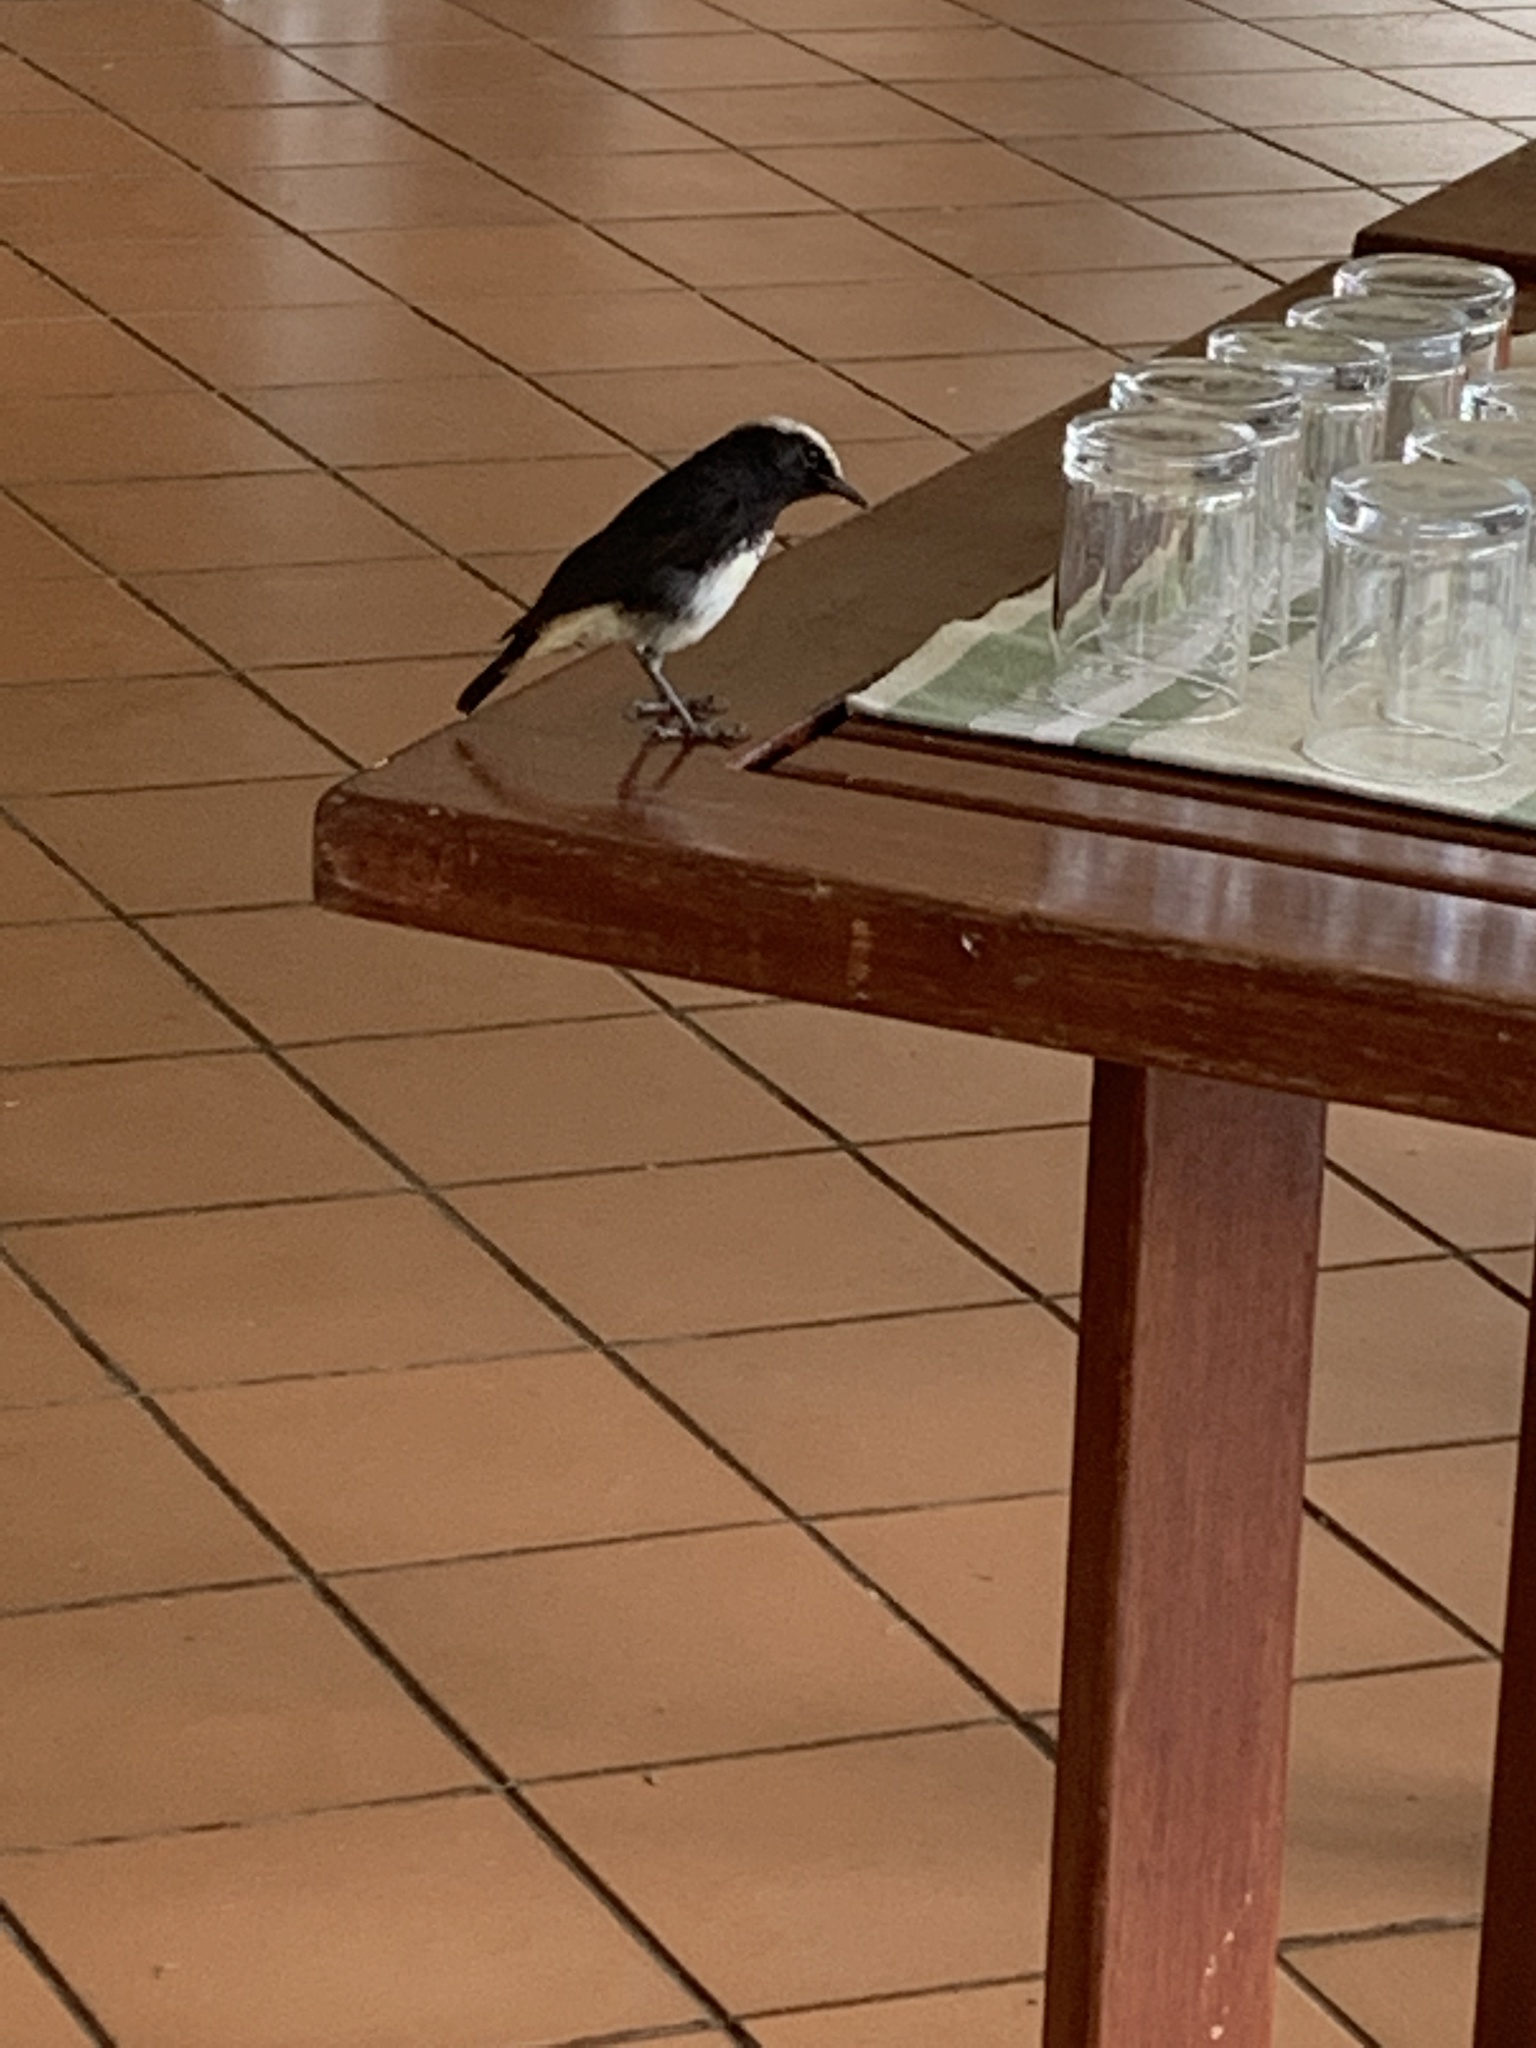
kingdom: Animalia
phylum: Chordata
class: Aves
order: Passeriformes
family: Muscicapidae
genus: Oenanthe
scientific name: Oenanthe lugubris
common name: Abyssinian wheatear
